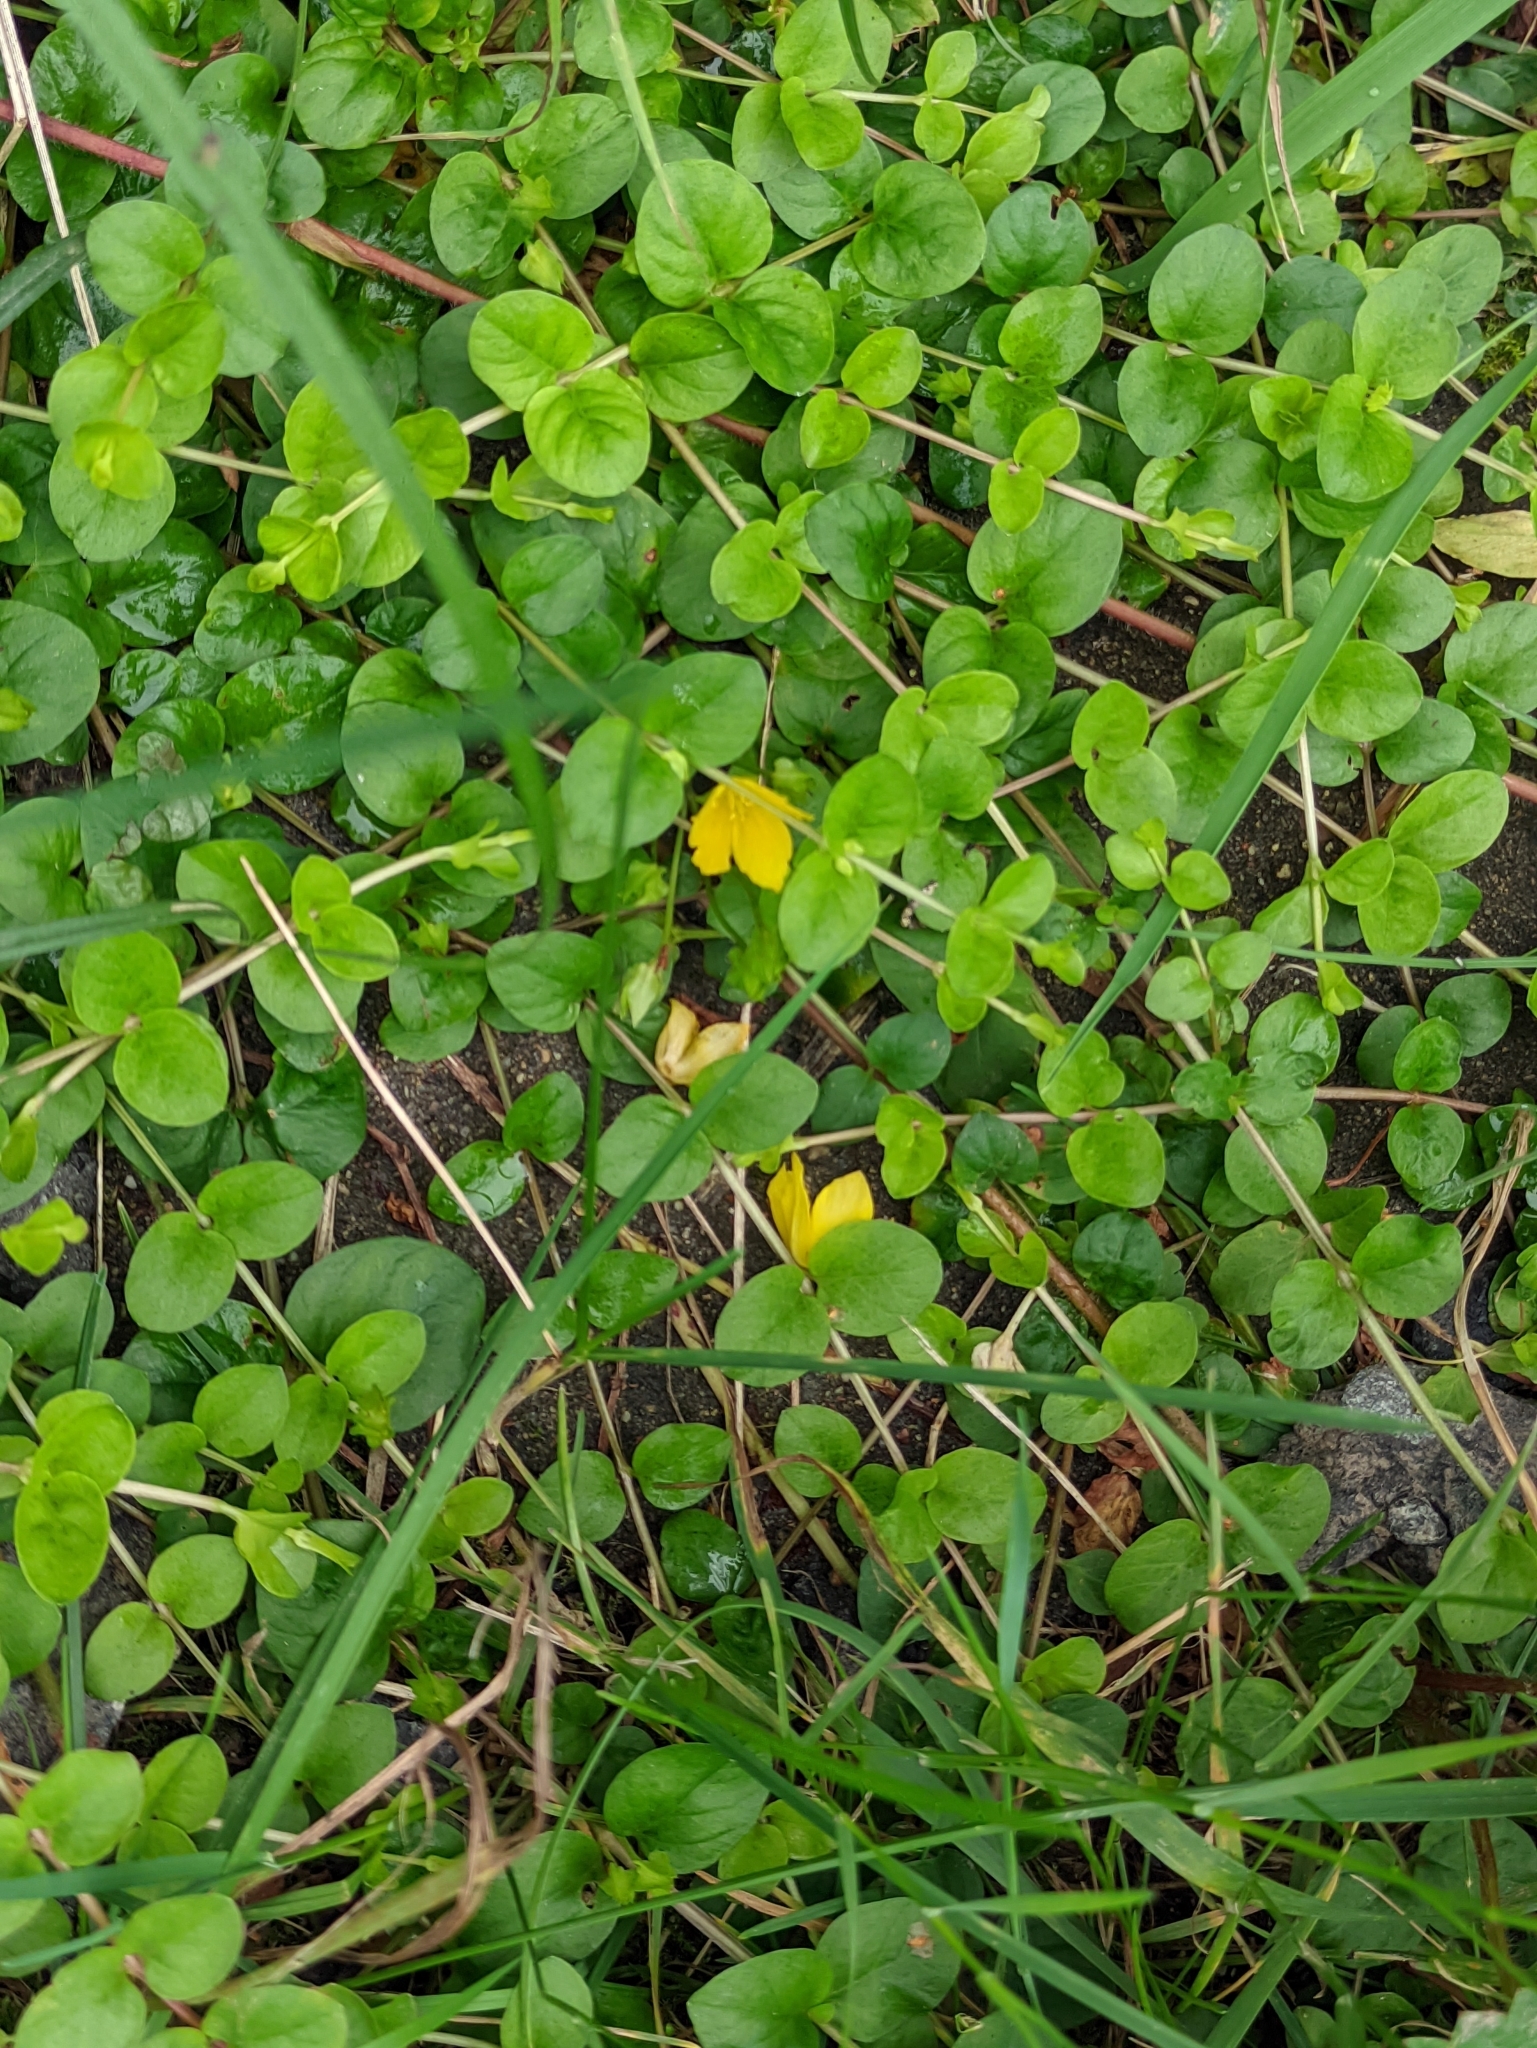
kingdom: Plantae
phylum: Tracheophyta
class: Magnoliopsida
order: Ericales
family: Primulaceae
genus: Lysimachia
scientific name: Lysimachia nummularia
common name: Moneywort
